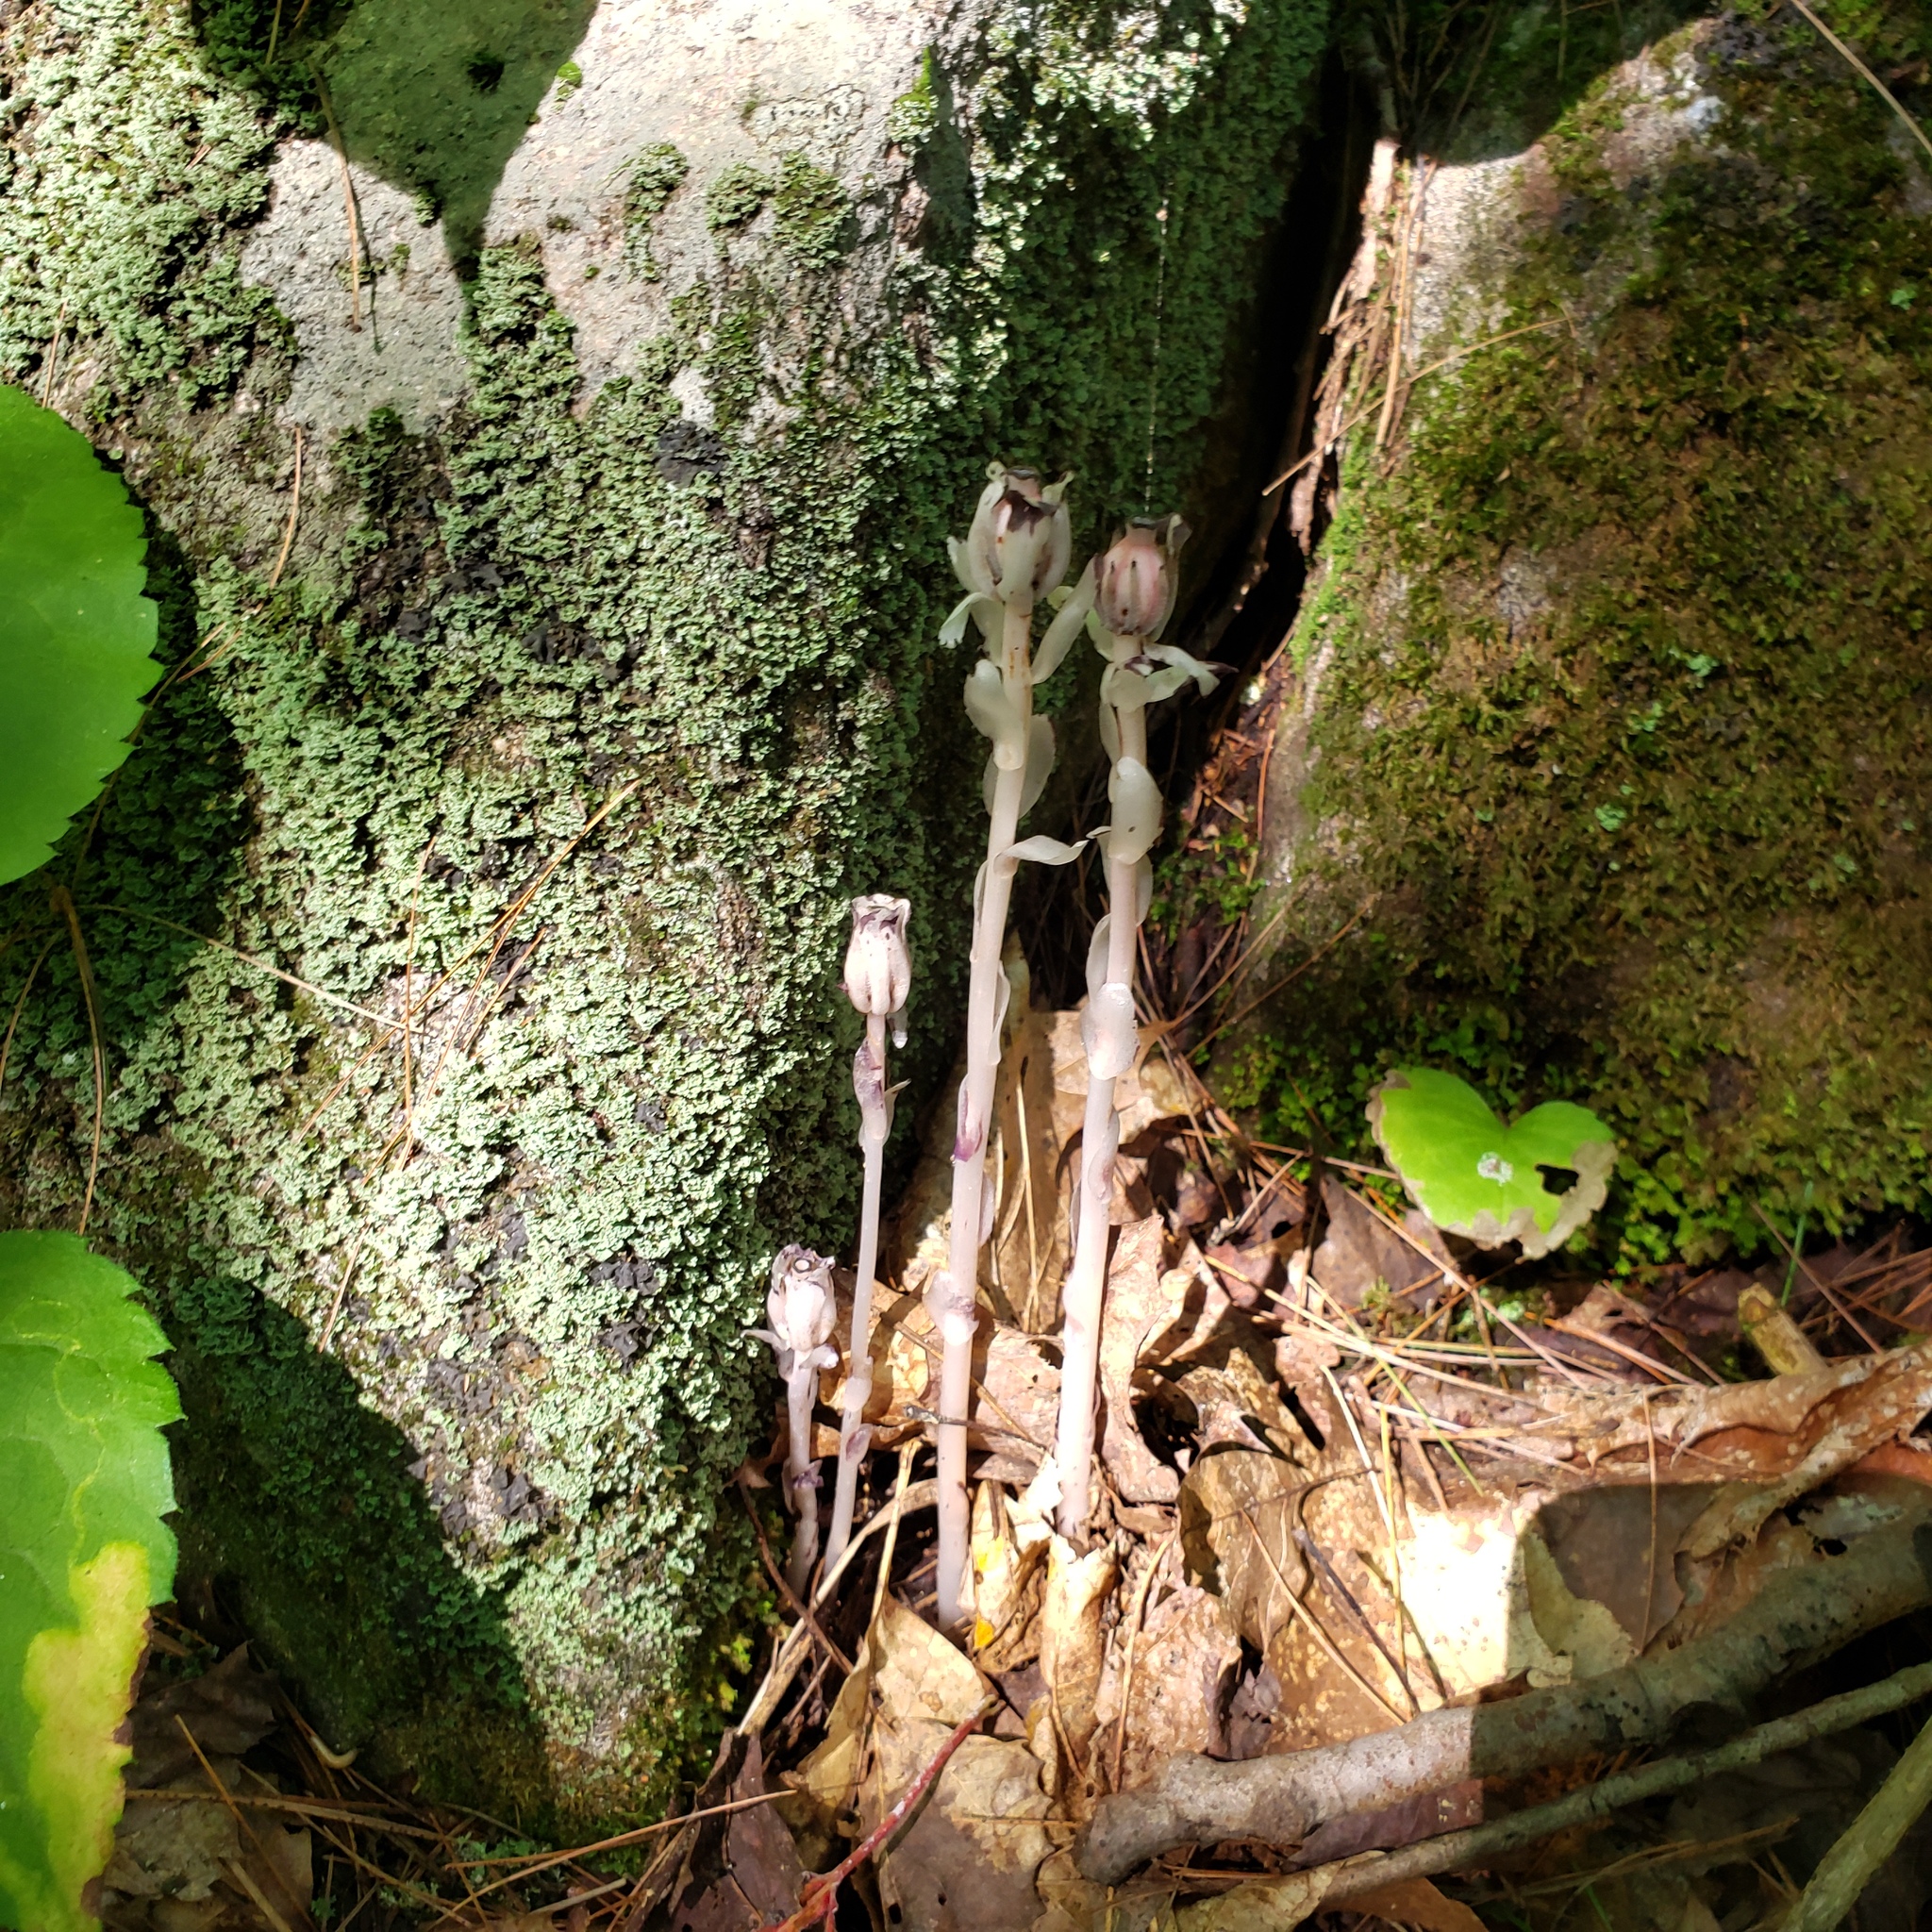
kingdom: Plantae
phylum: Tracheophyta
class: Magnoliopsida
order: Ericales
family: Ericaceae
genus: Monotropa
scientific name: Monotropa uniflora
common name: Convulsion root
